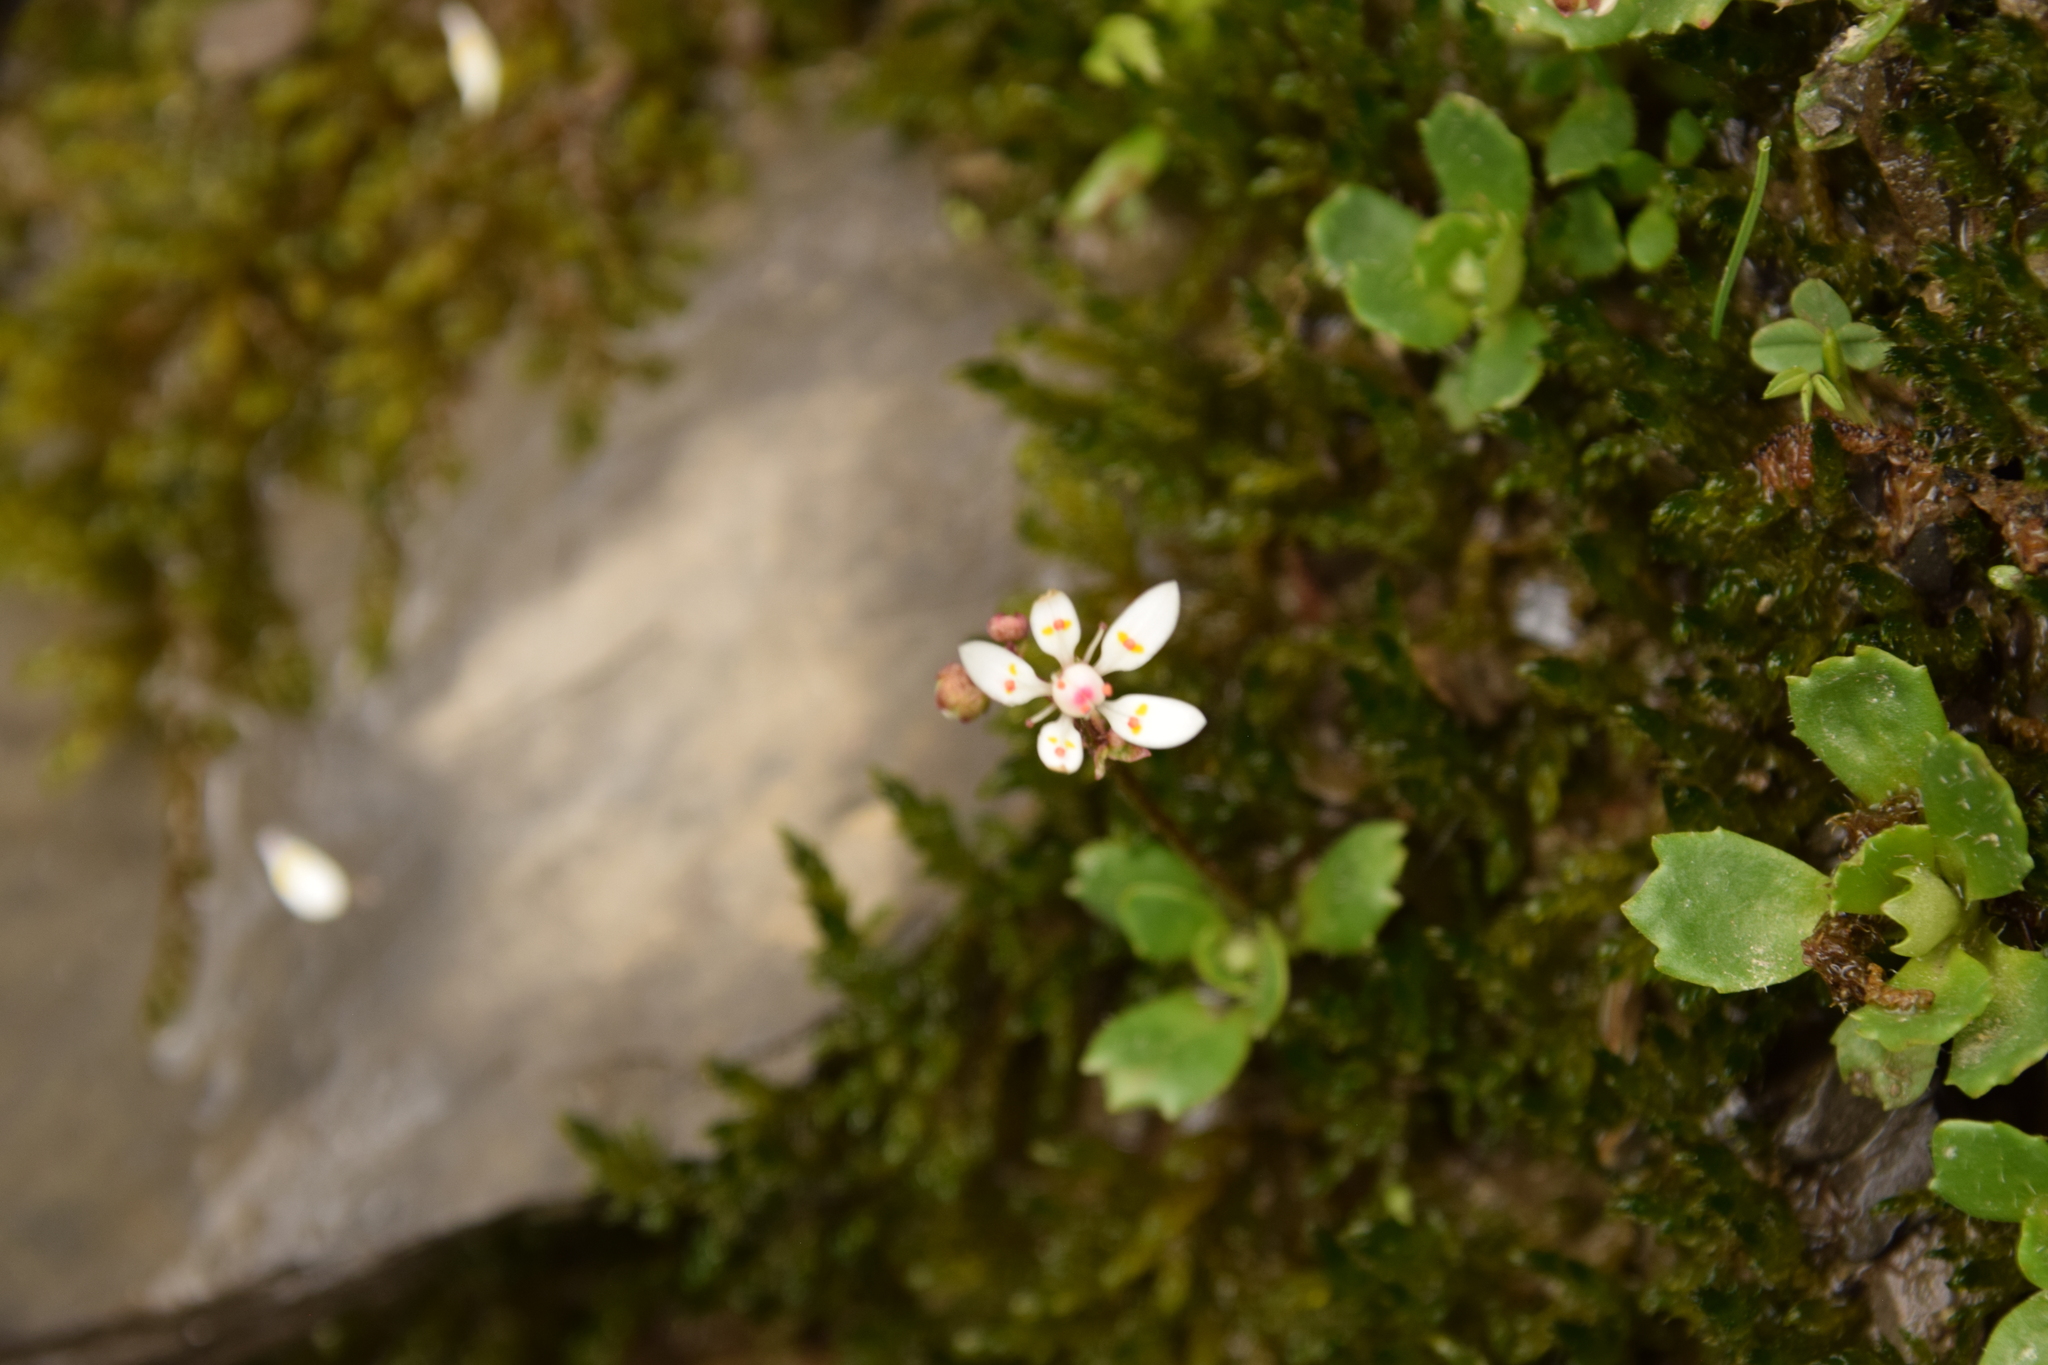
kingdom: Plantae
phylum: Tracheophyta
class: Magnoliopsida
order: Saxifragales
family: Saxifragaceae
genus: Micranthes
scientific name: Micranthes stellaris
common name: Starry saxifrage
